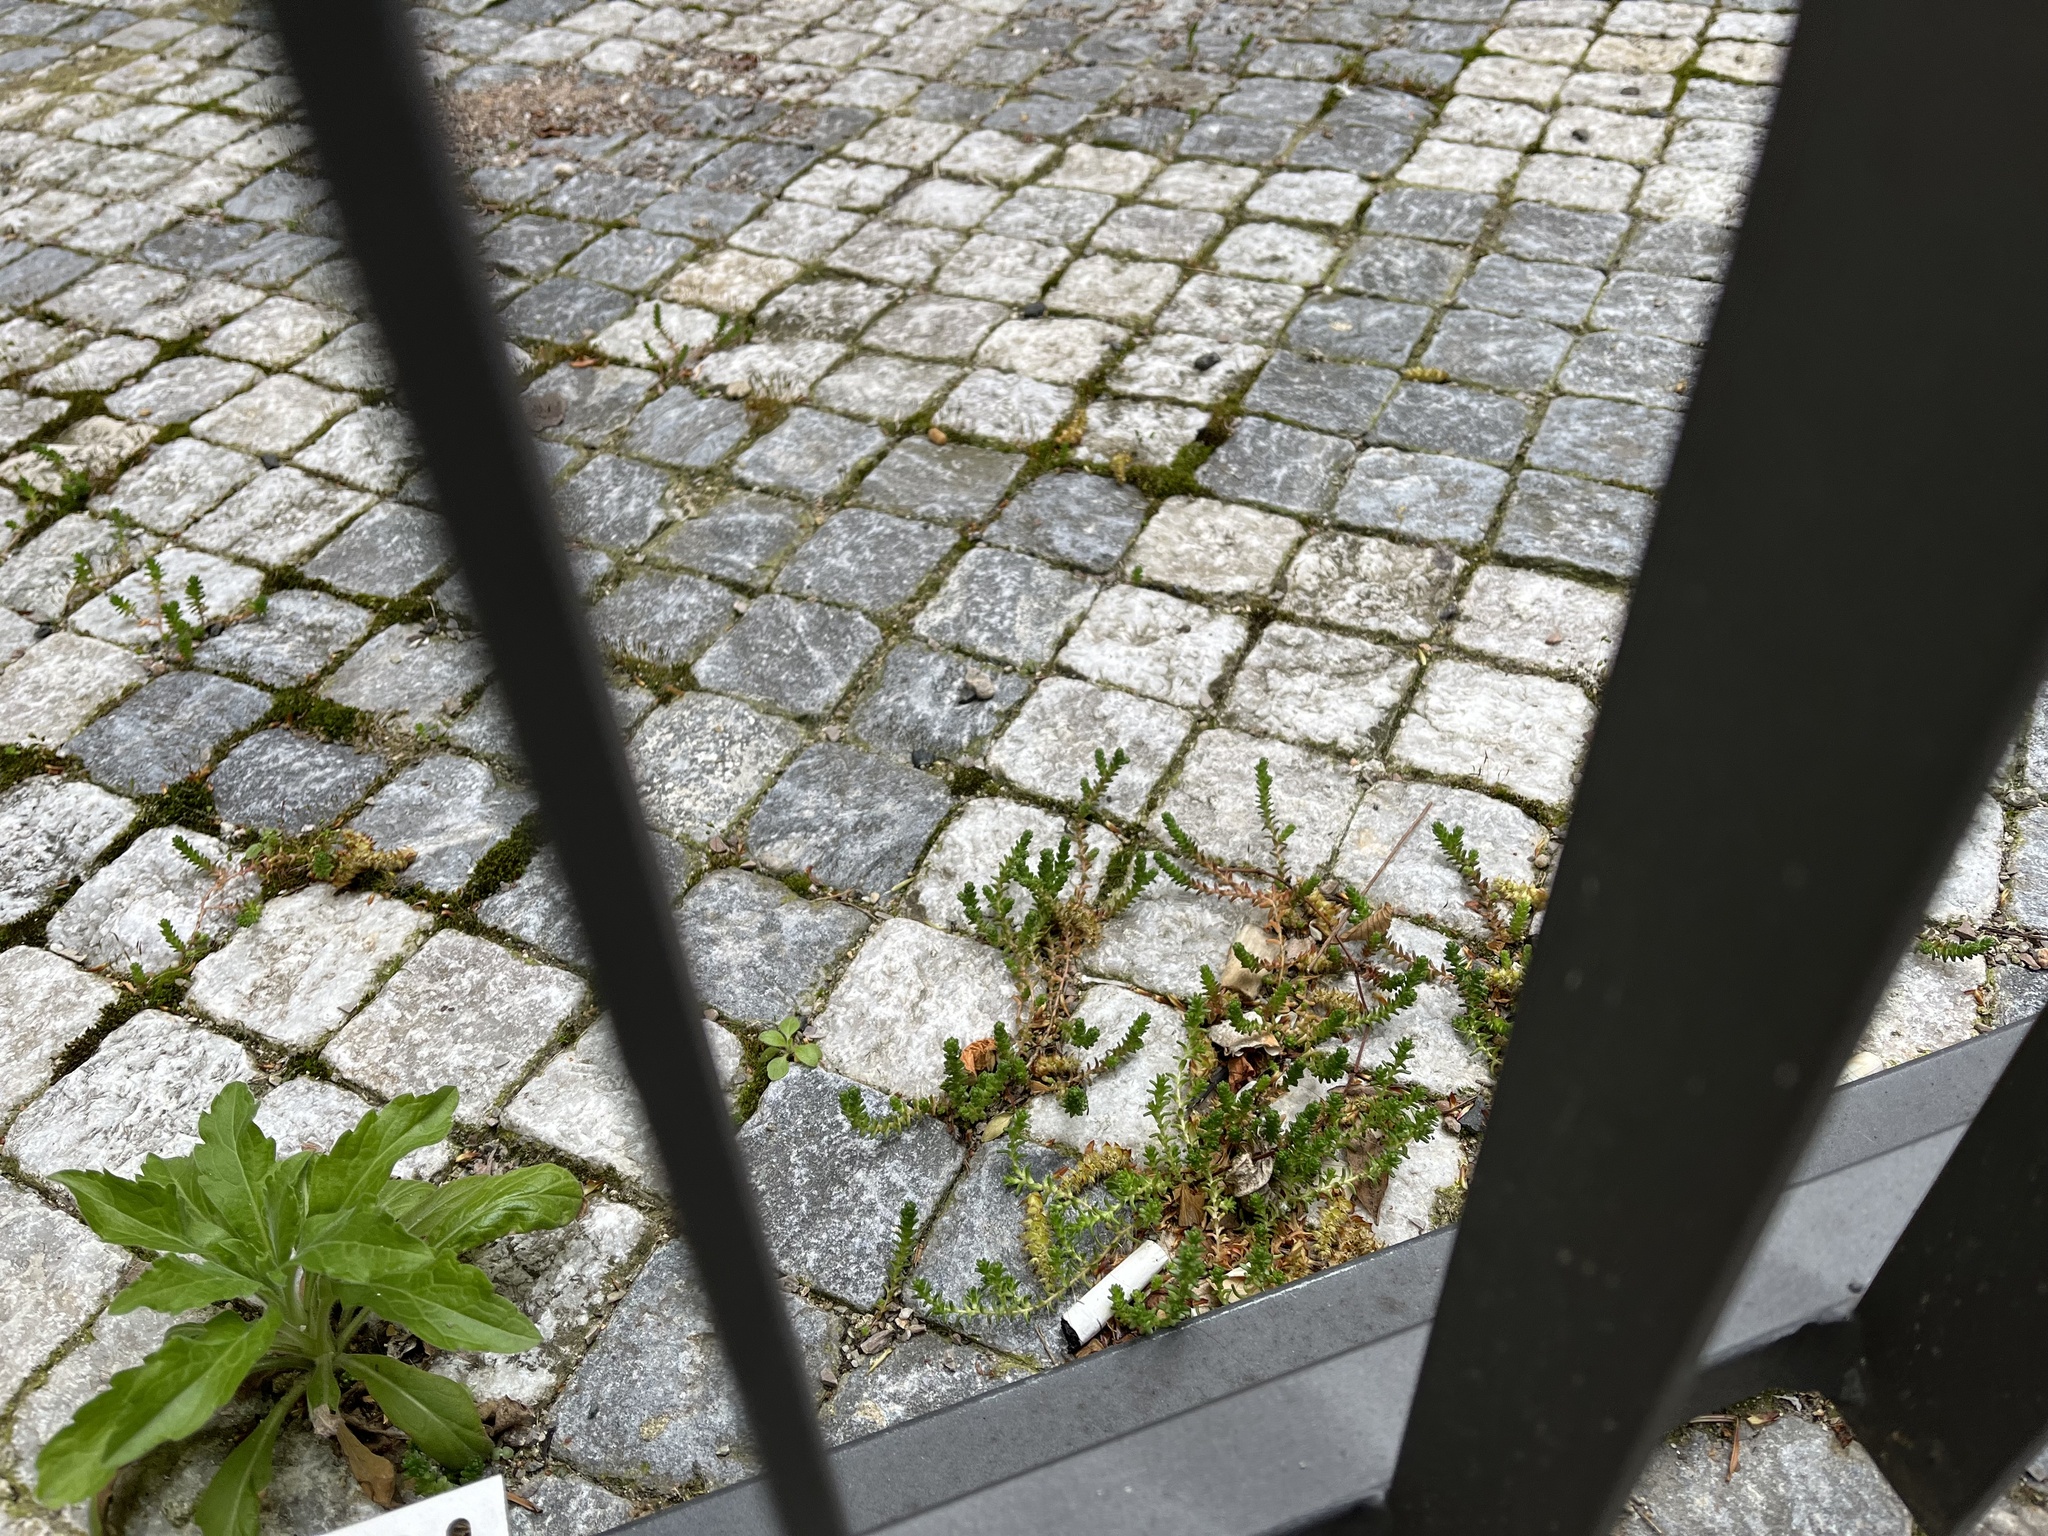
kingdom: Plantae
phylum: Tracheophyta
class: Magnoliopsida
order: Saxifragales
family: Crassulaceae
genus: Sedum
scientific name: Sedum acre
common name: Biting stonecrop
